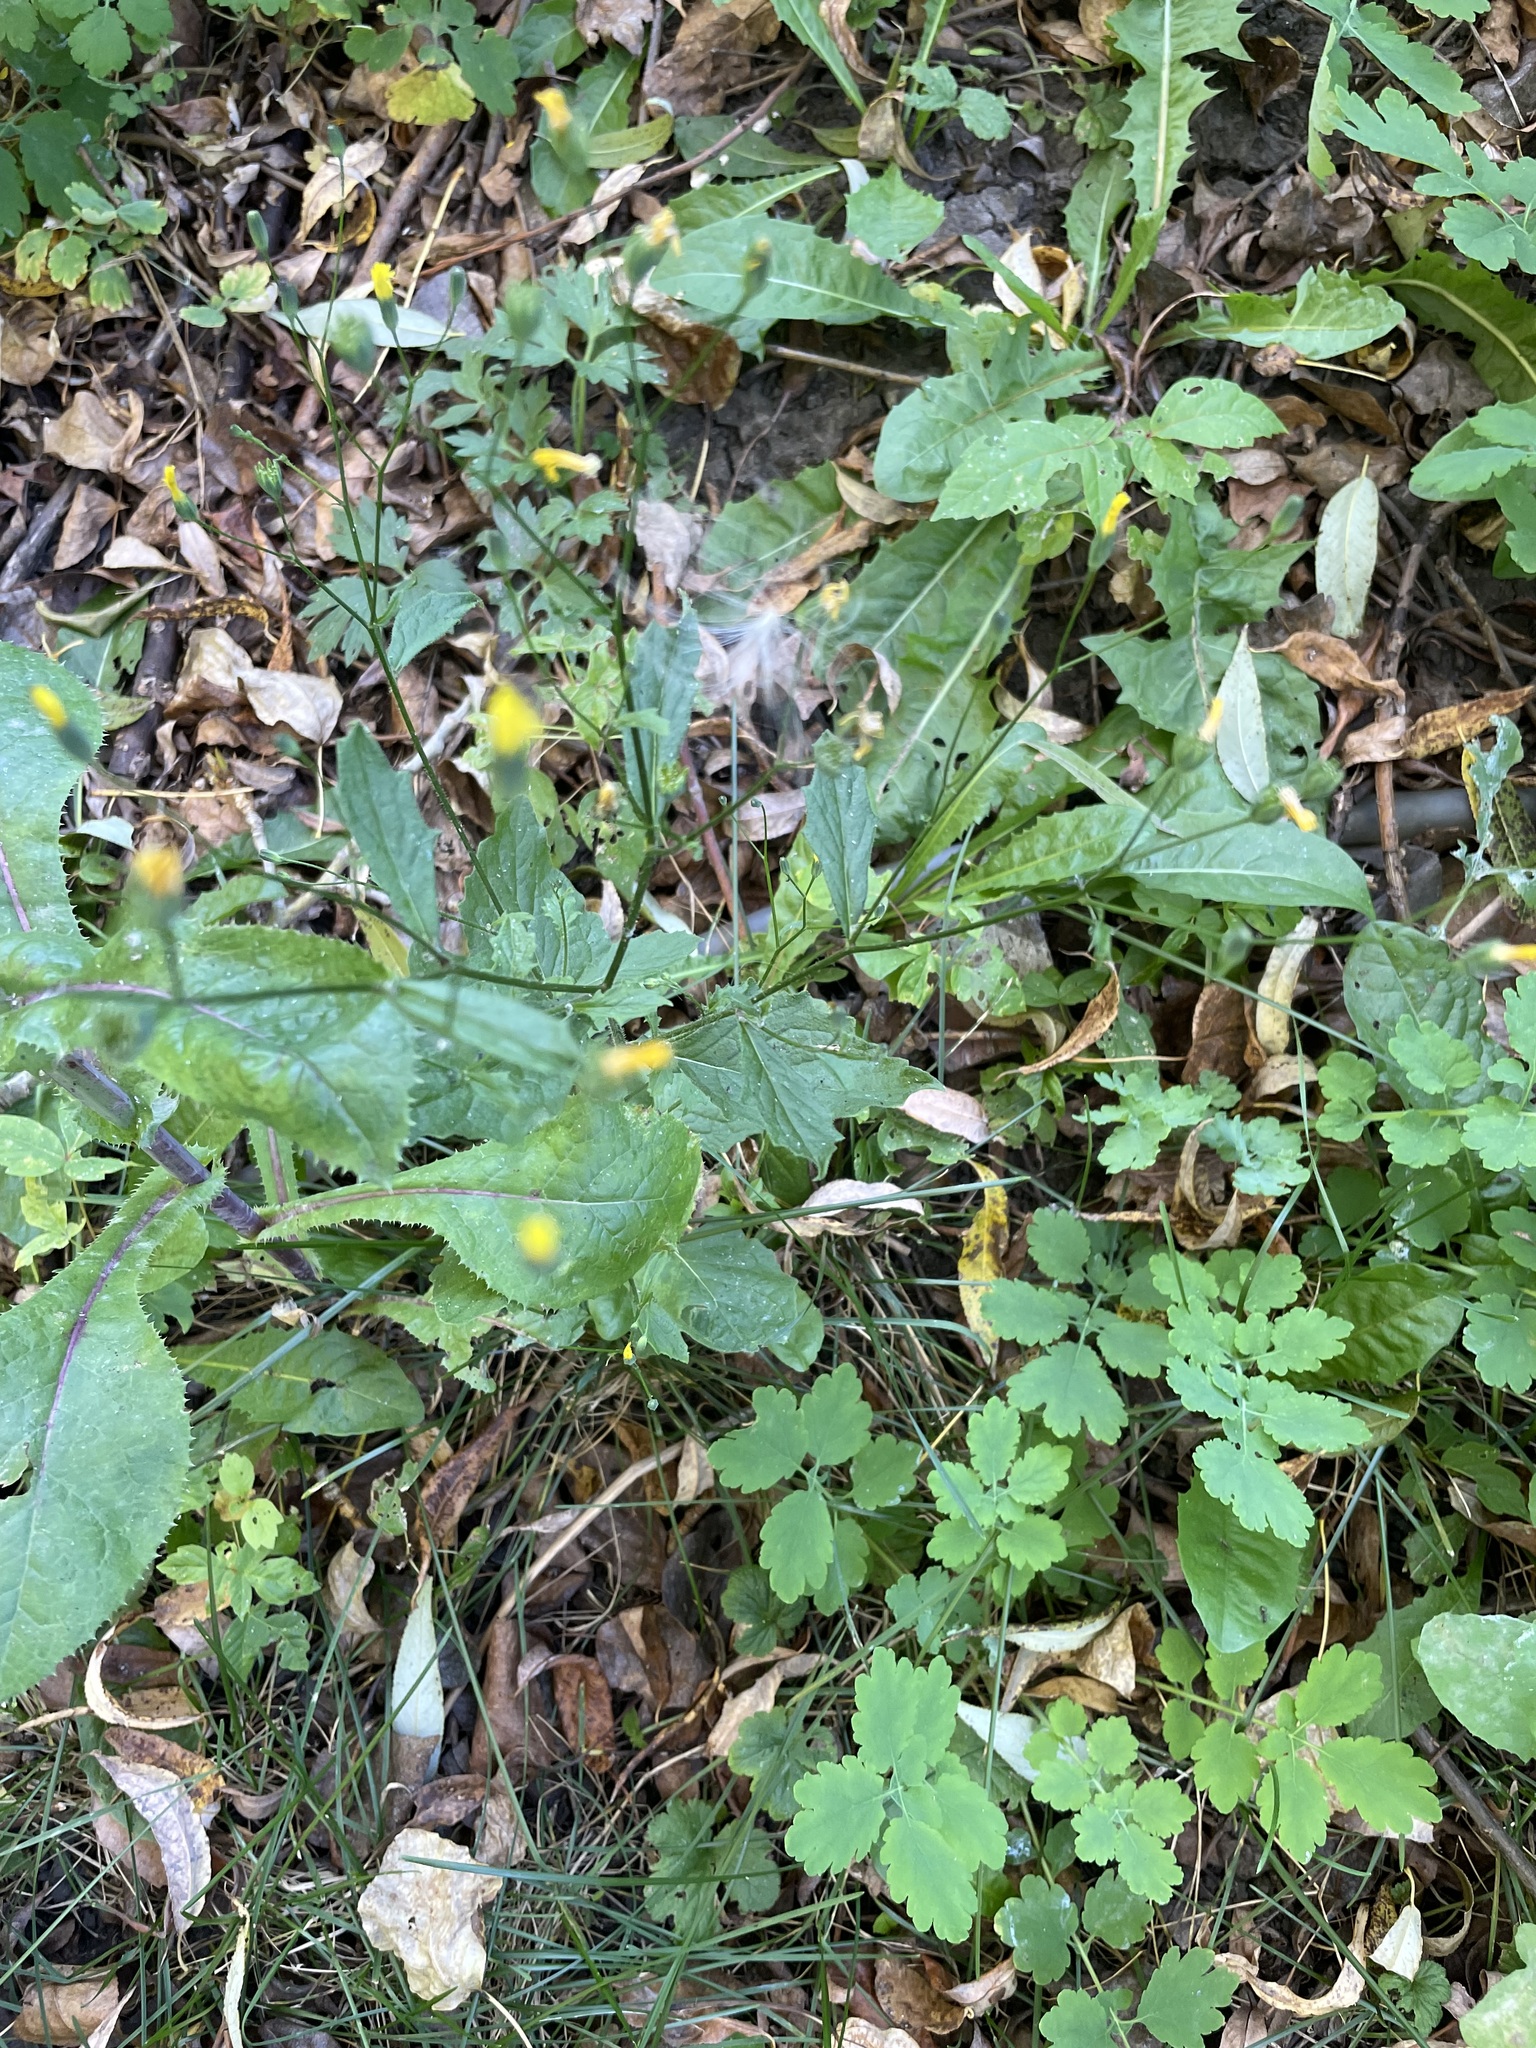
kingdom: Plantae
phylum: Tracheophyta
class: Magnoliopsida
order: Asterales
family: Asteraceae
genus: Lapsana
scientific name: Lapsana communis
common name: Nipplewort
